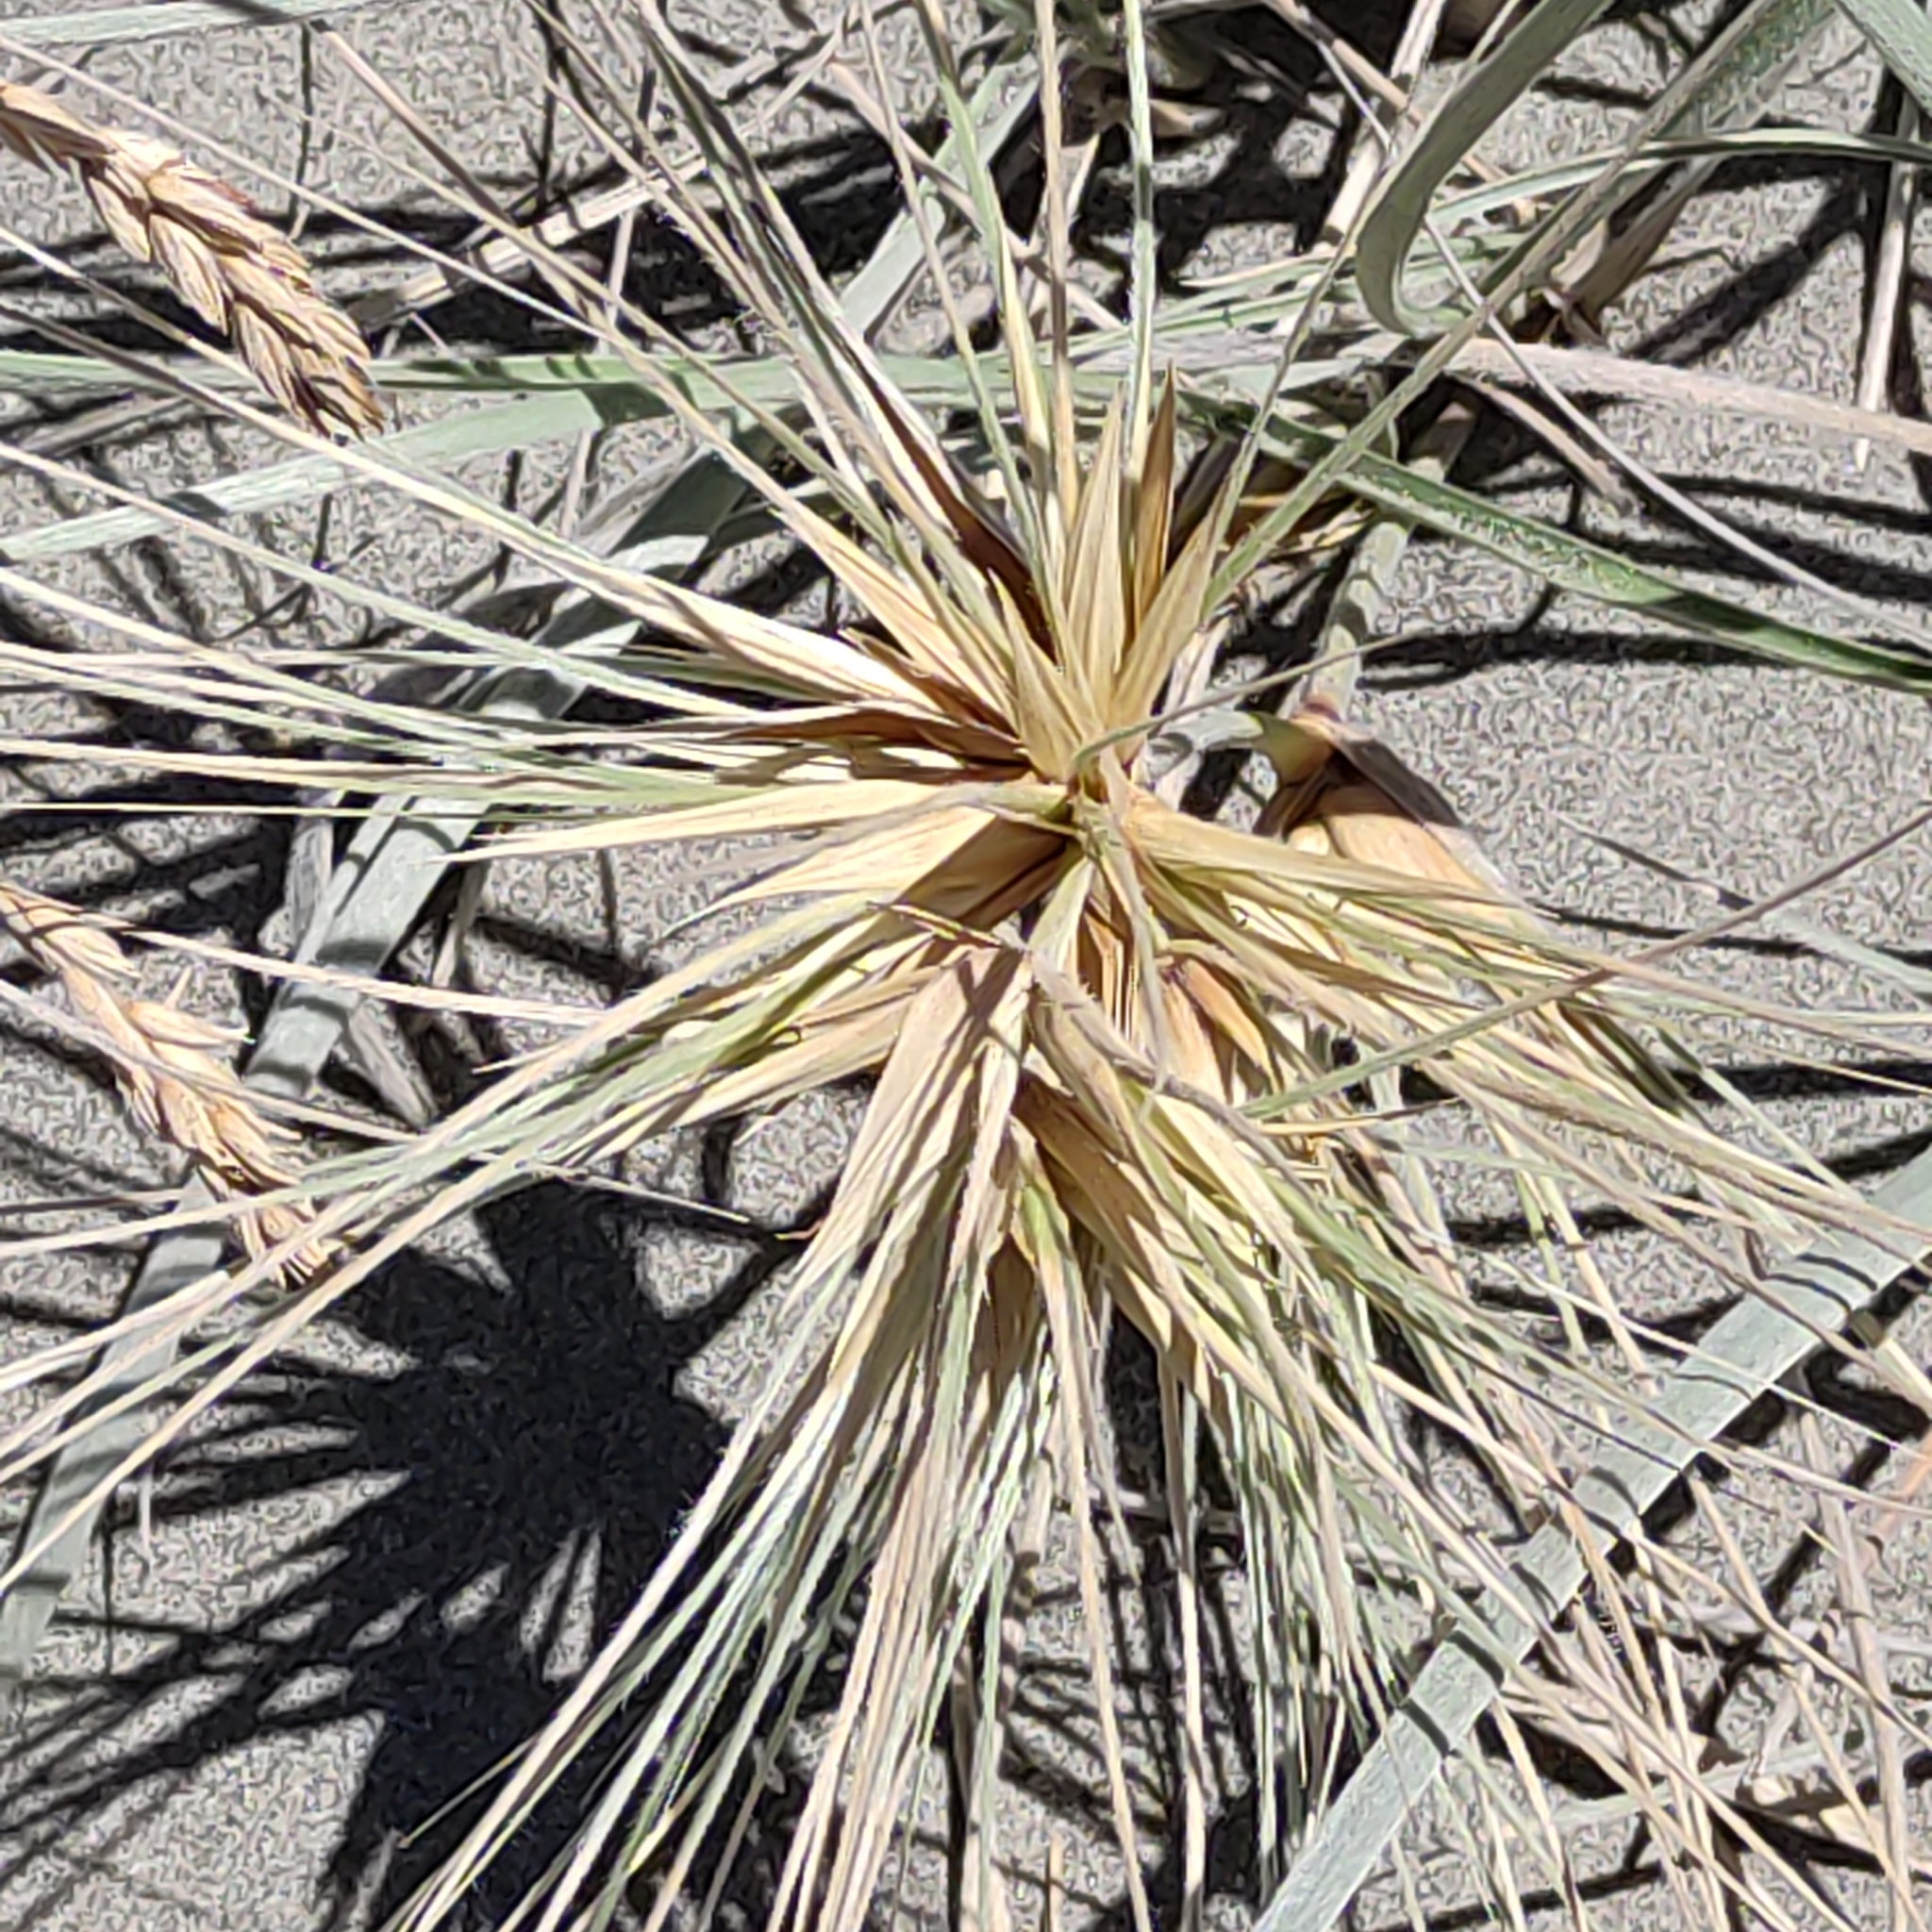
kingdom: Plantae
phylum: Tracheophyta
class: Liliopsida
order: Poales
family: Poaceae
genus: Spinifex
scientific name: Spinifex sericeus
